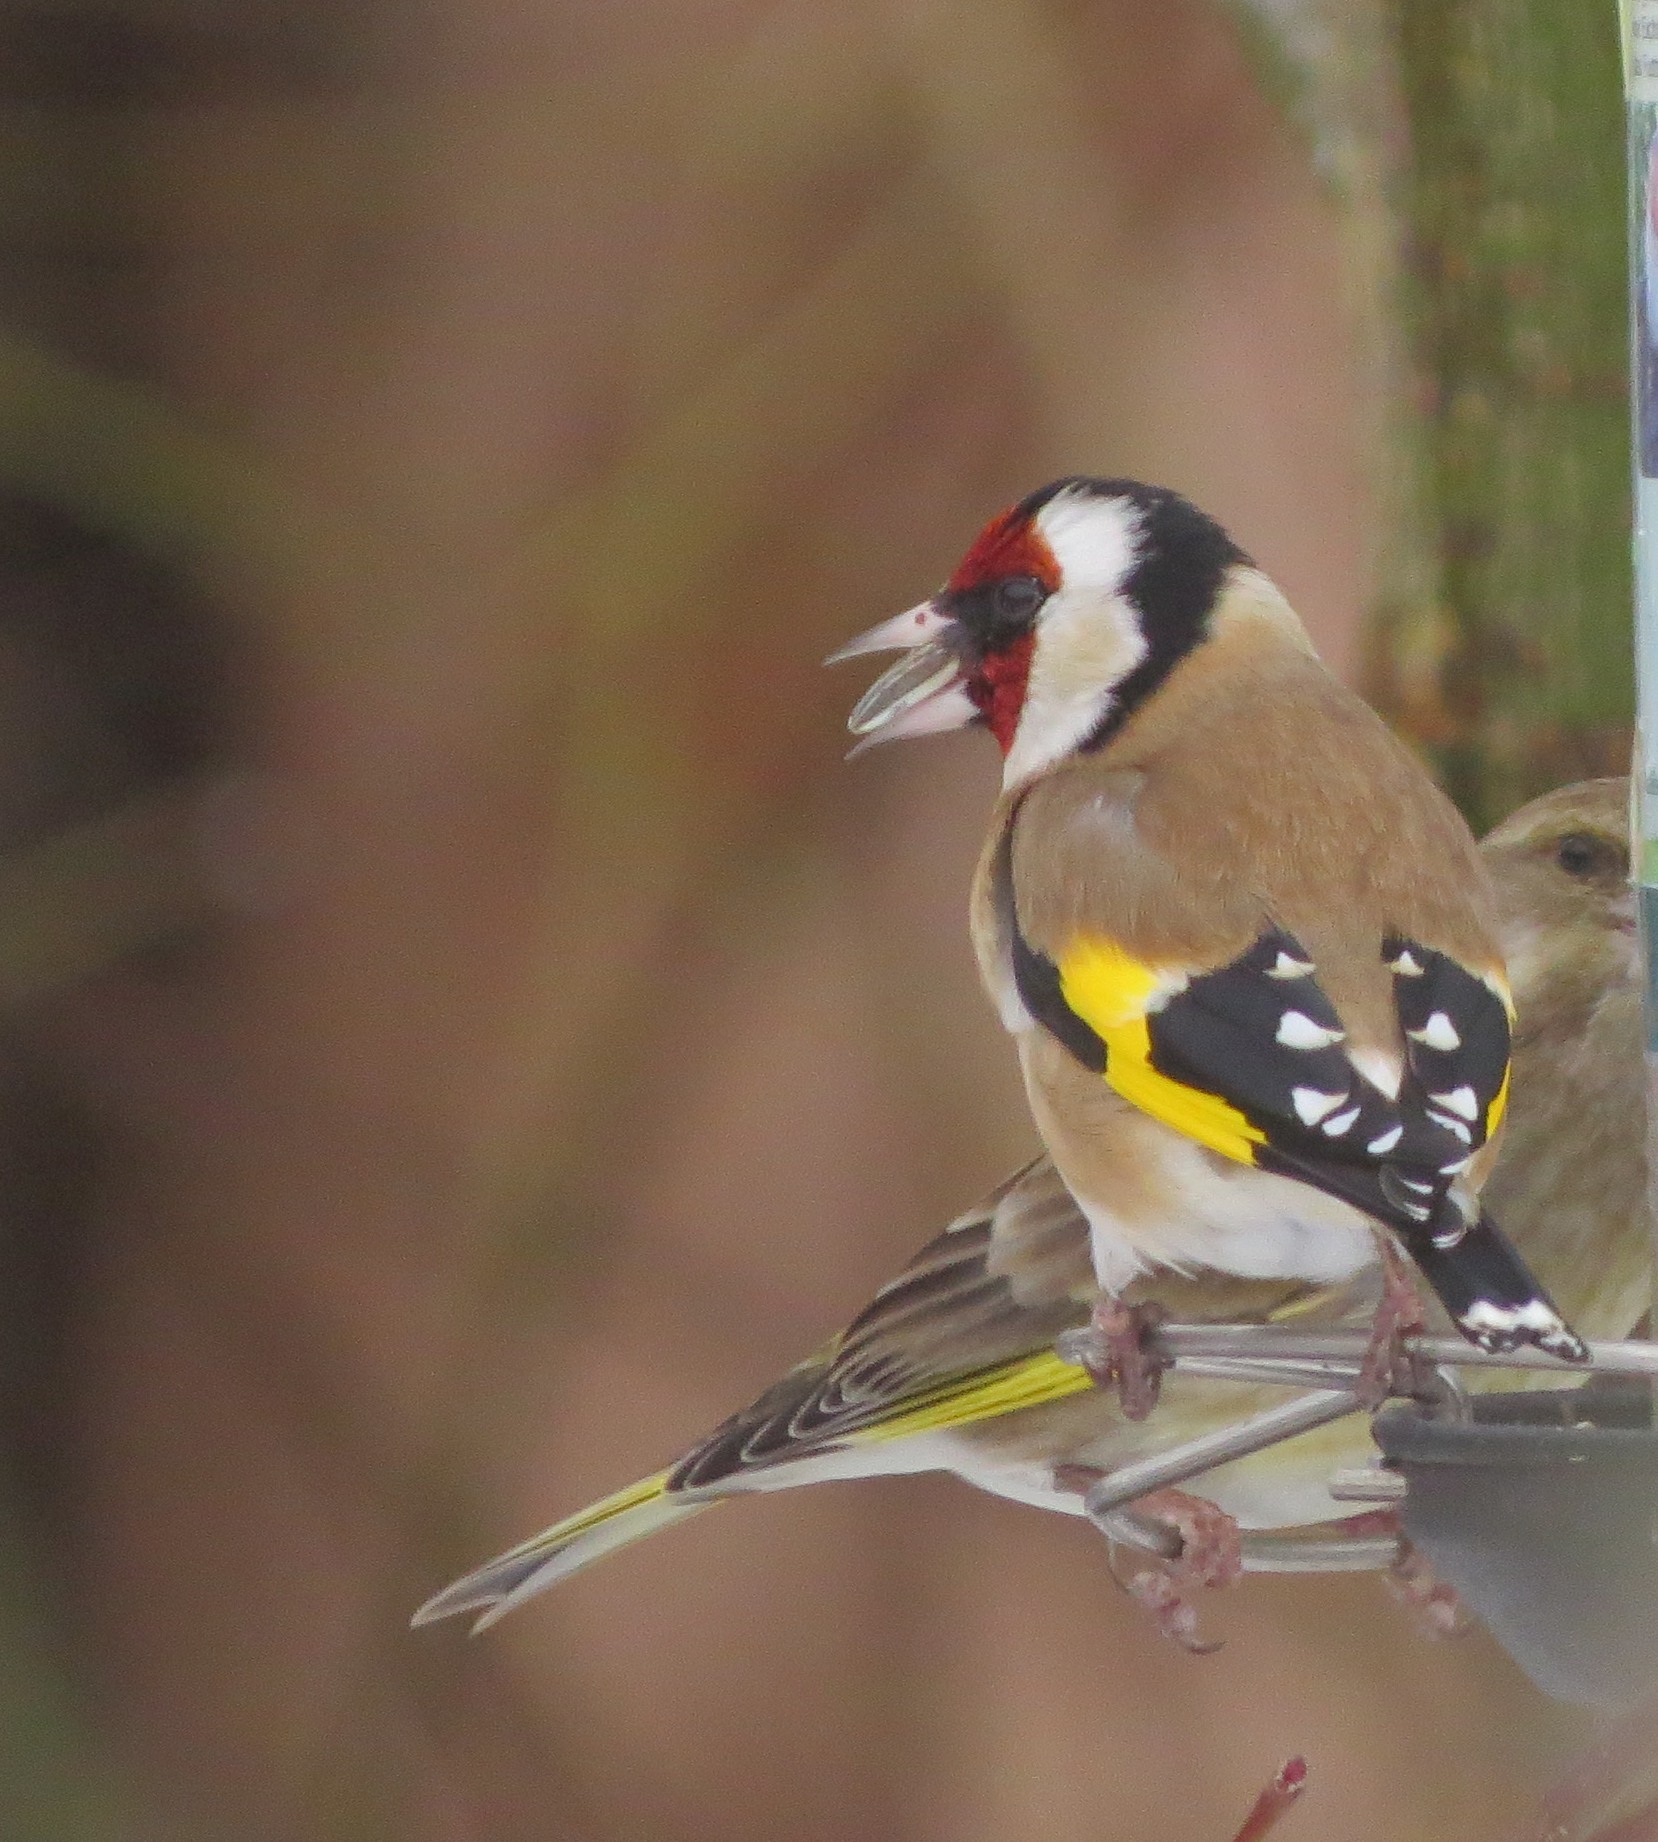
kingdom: Animalia
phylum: Chordata
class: Aves
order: Passeriformes
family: Fringillidae
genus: Carduelis
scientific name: Carduelis carduelis
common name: European goldfinch
